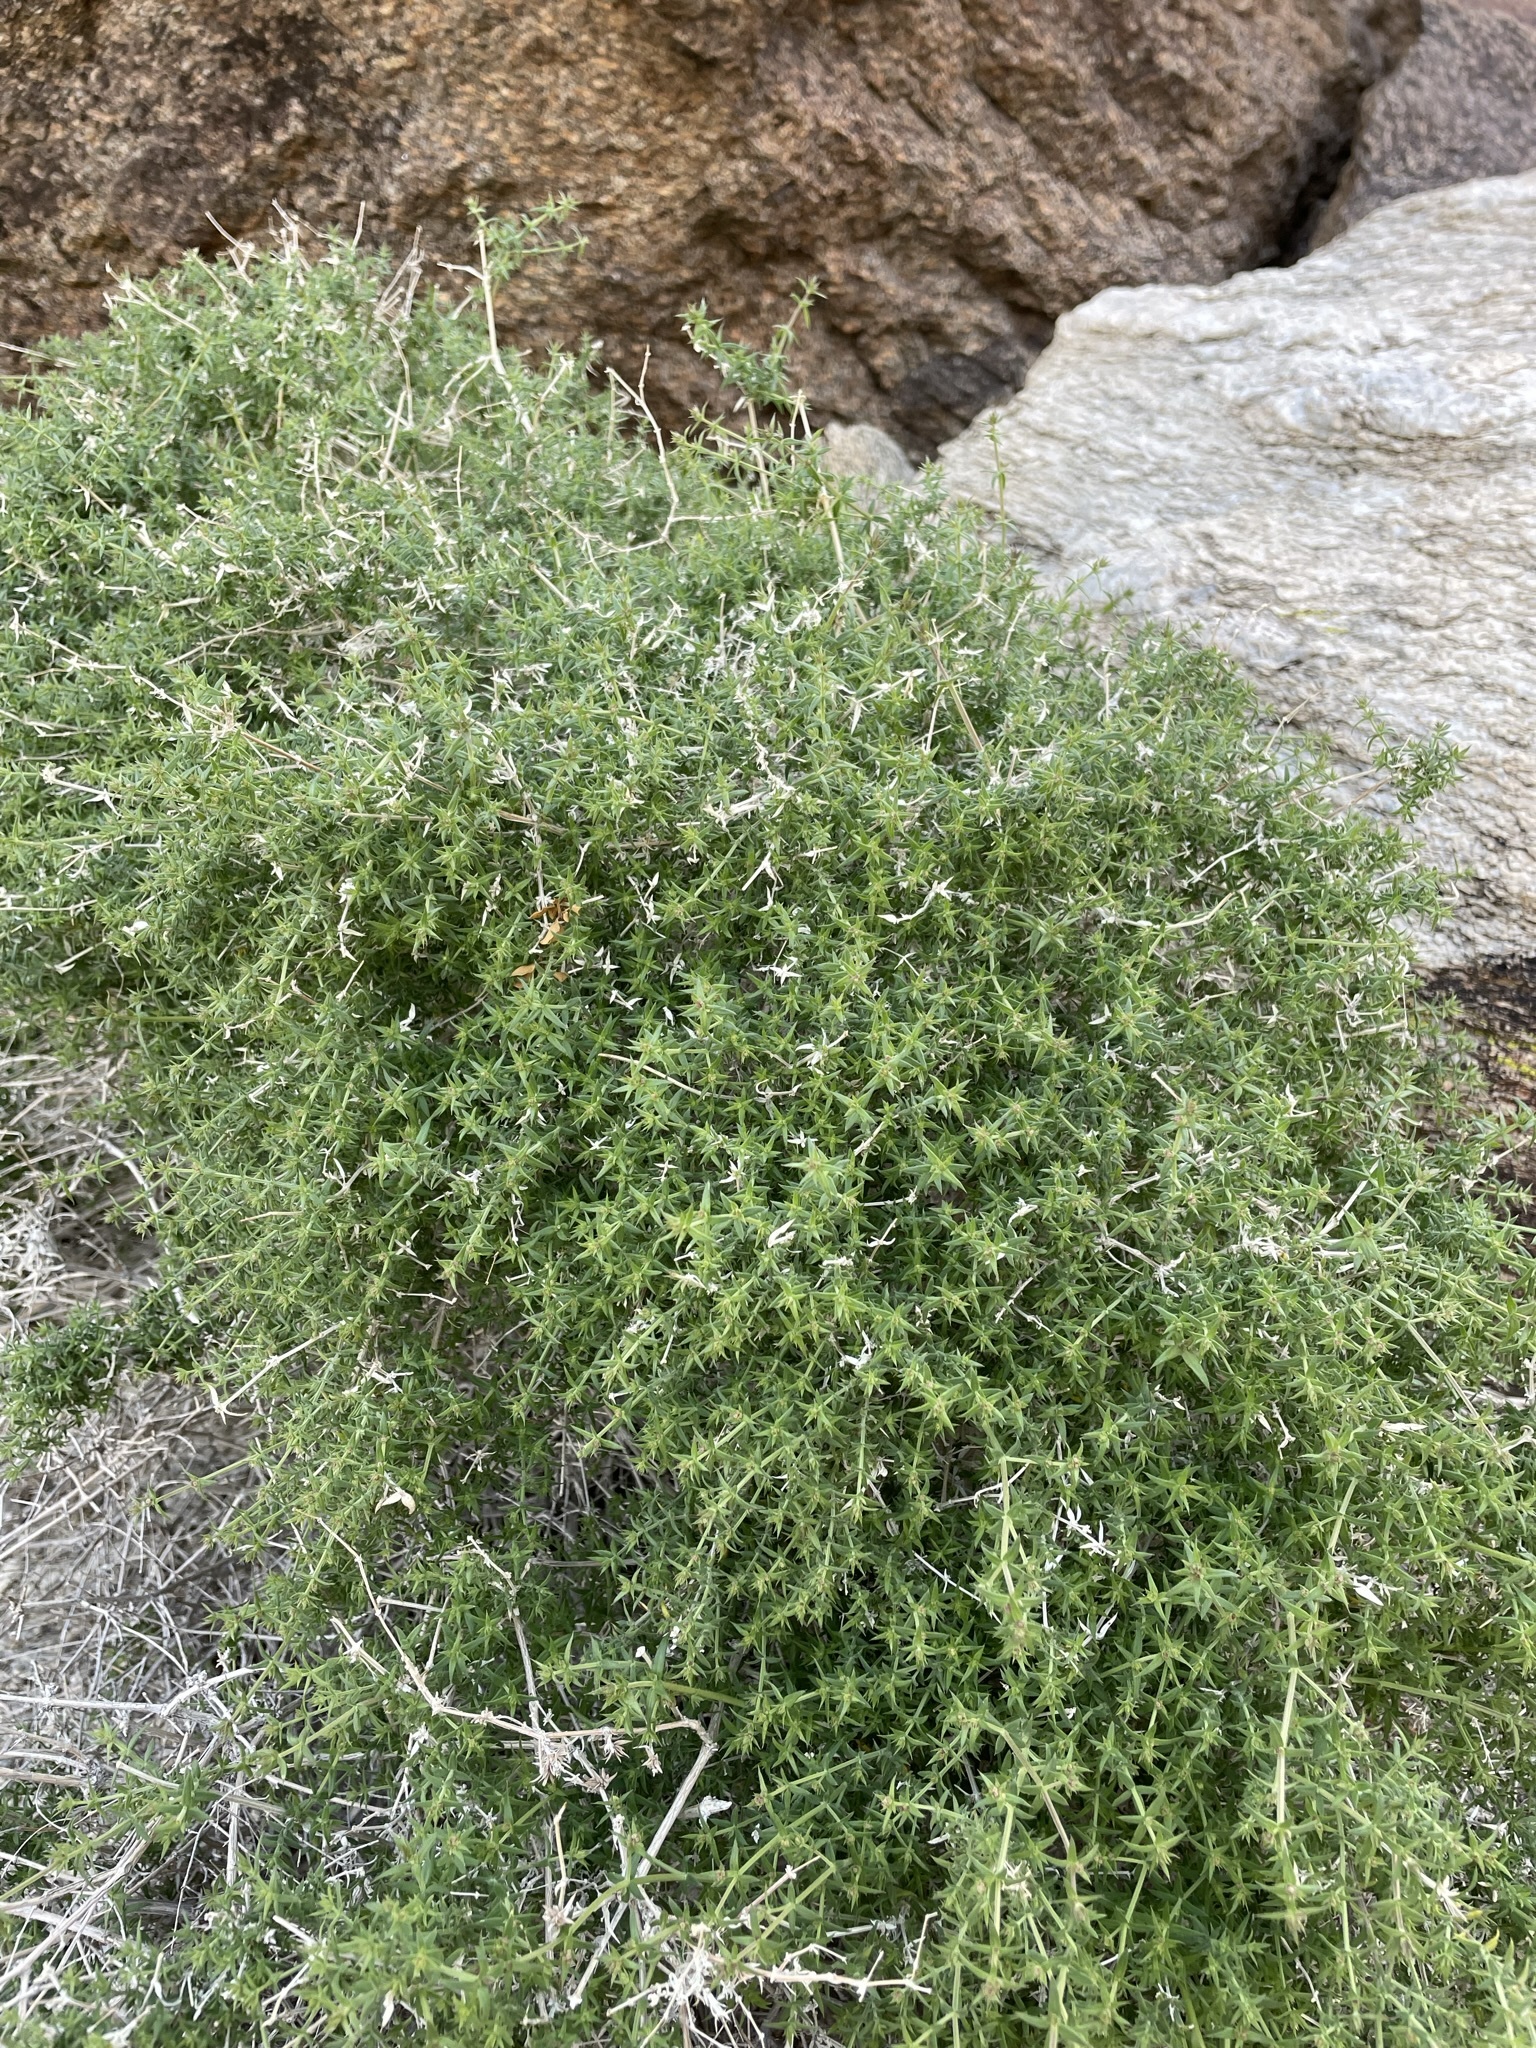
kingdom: Plantae
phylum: Tracheophyta
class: Magnoliopsida
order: Gentianales
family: Rubiaceae
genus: Galium
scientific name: Galium stellatum
